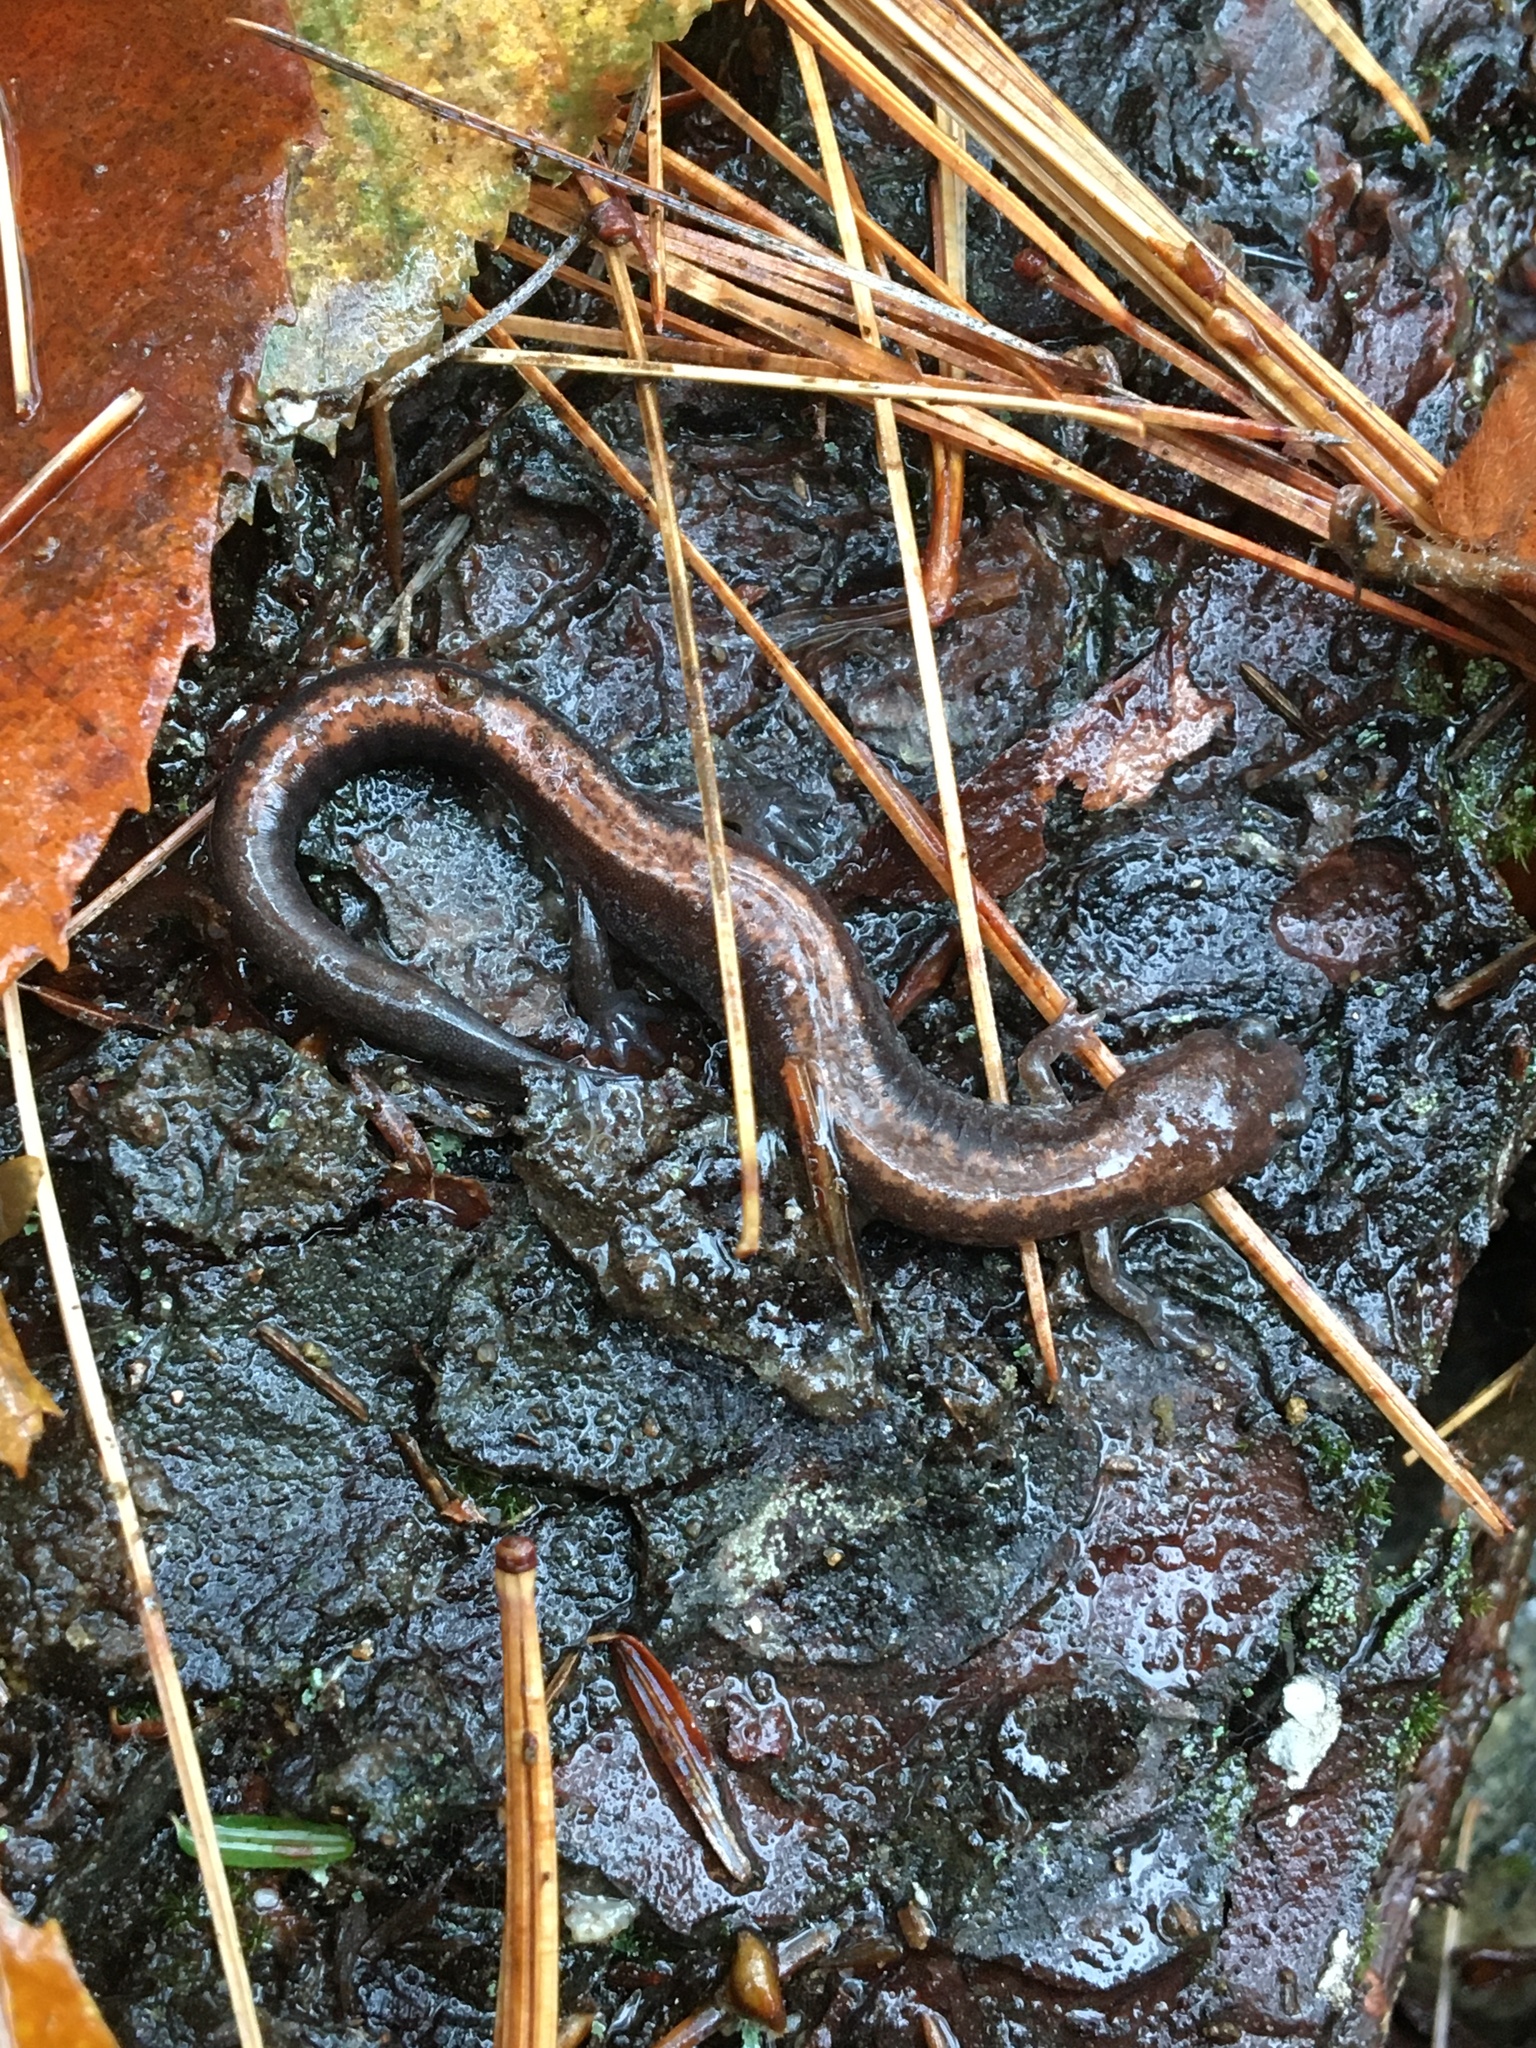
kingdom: Animalia
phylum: Chordata
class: Amphibia
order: Caudata
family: Plethodontidae
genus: Plethodon
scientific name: Plethodon cinereus
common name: Redback salamander
